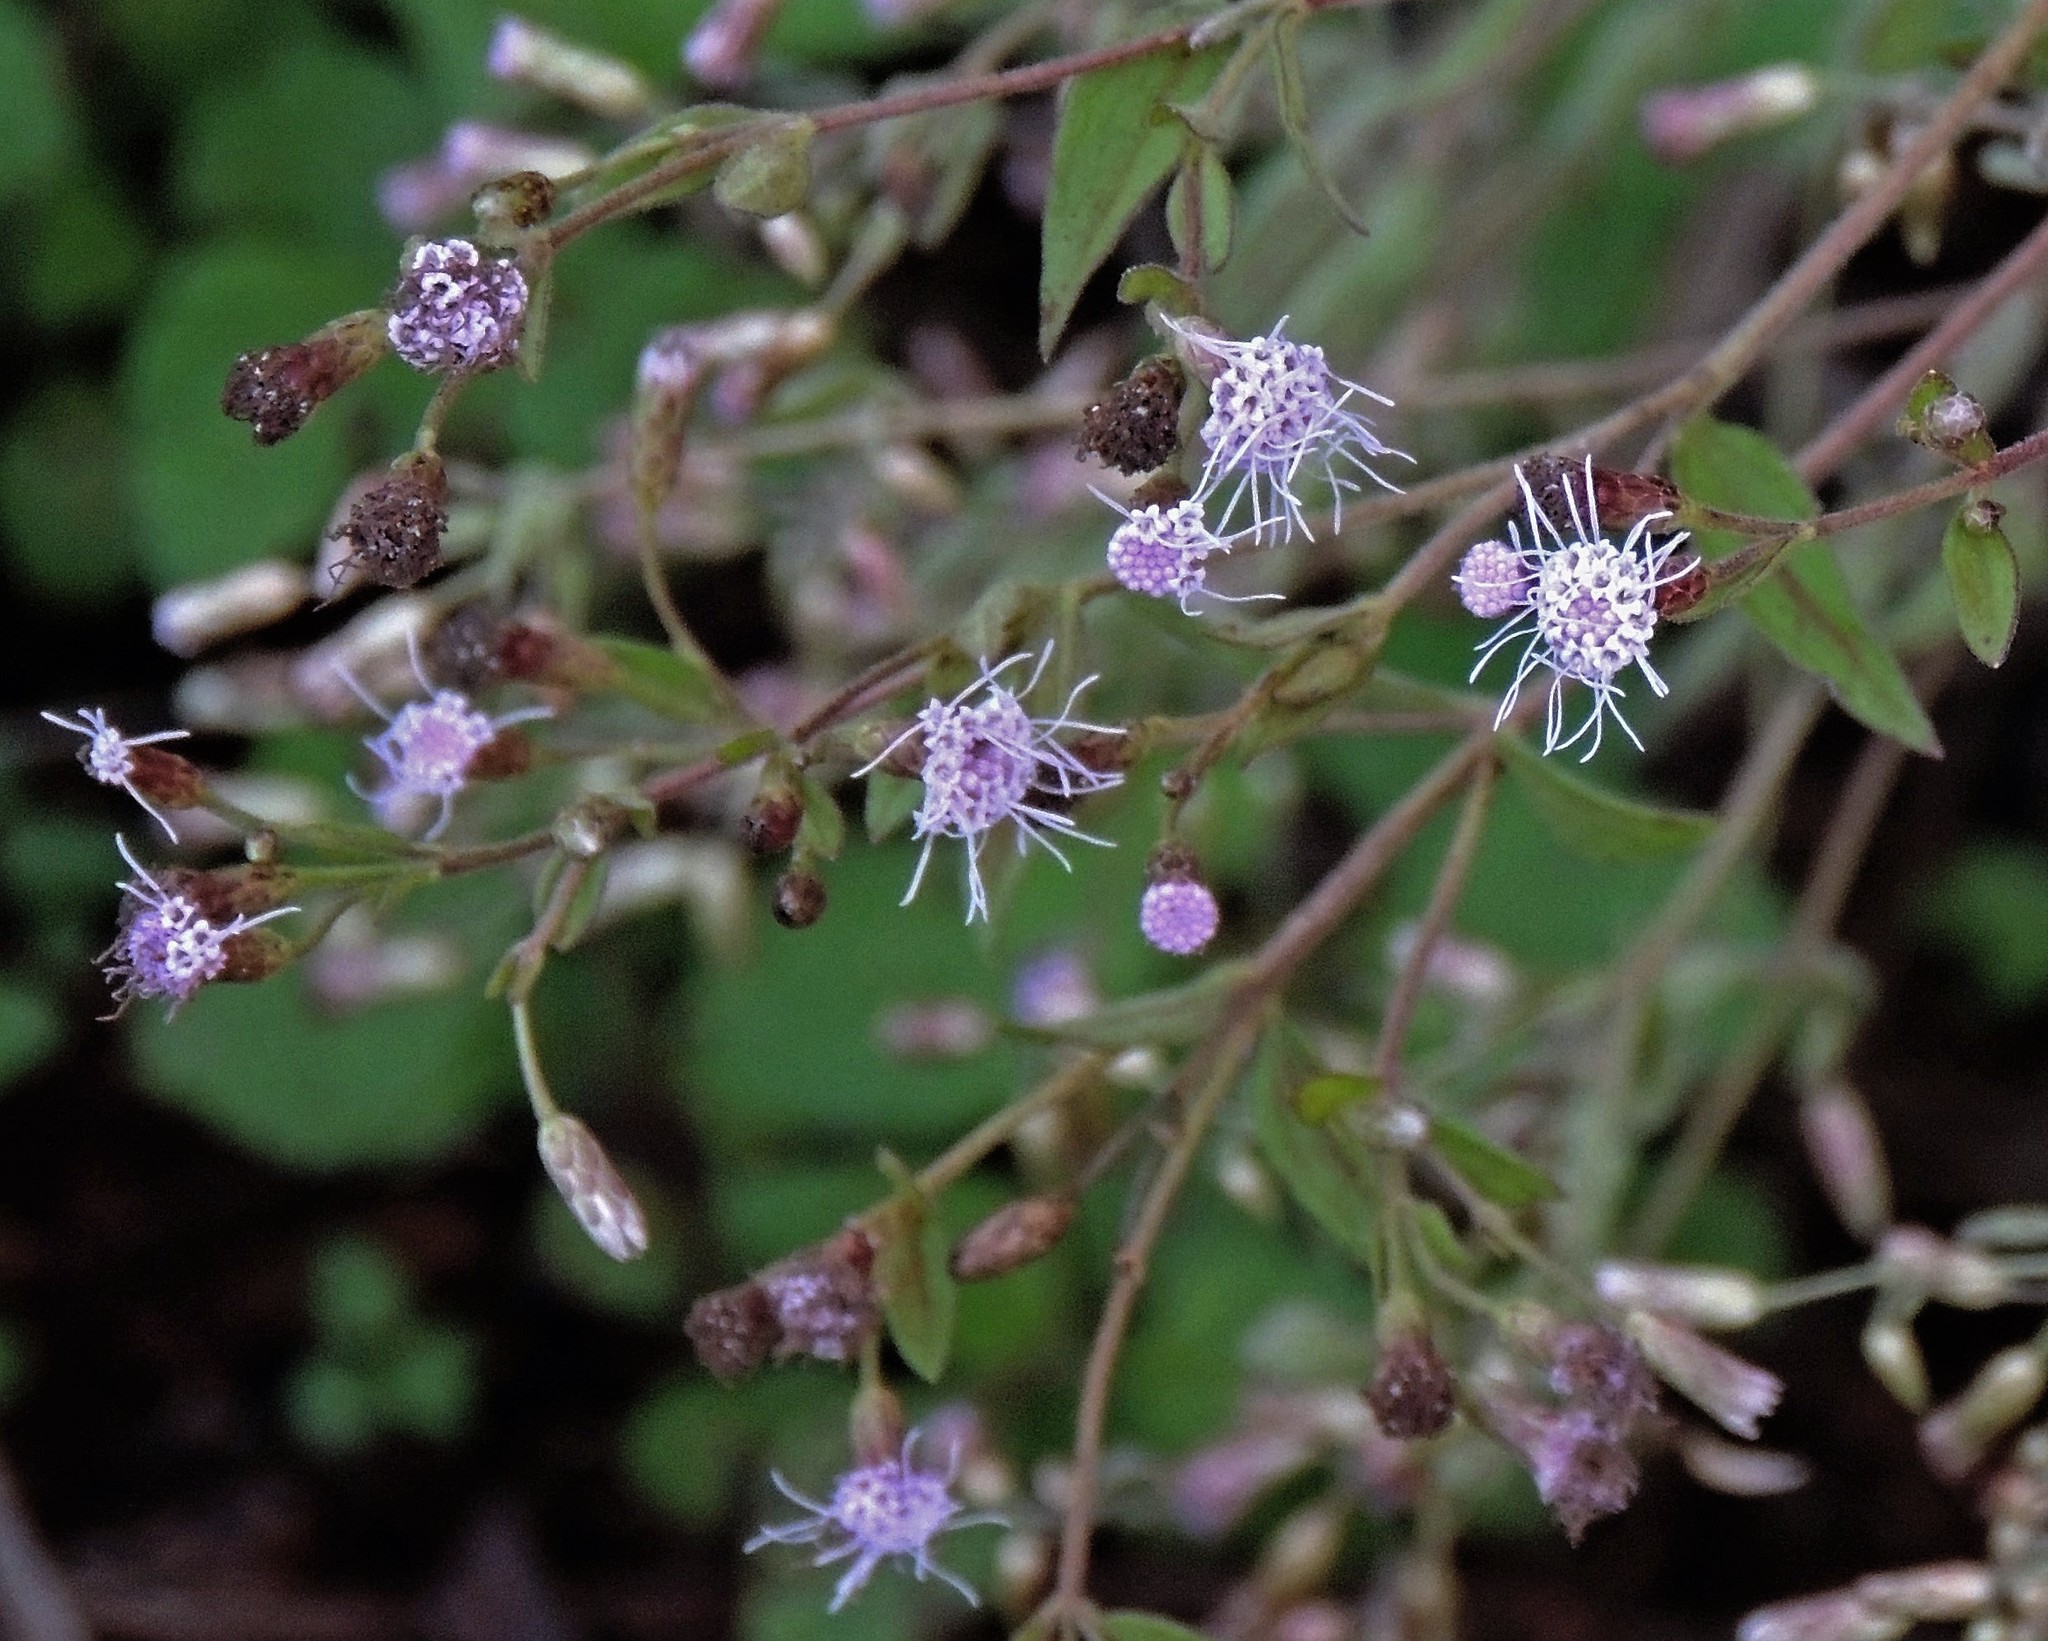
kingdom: Plantae
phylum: Tracheophyta
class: Magnoliopsida
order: Asterales
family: Asteraceae
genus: Chromolaena
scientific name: Chromolaena odorata
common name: Siamweed
